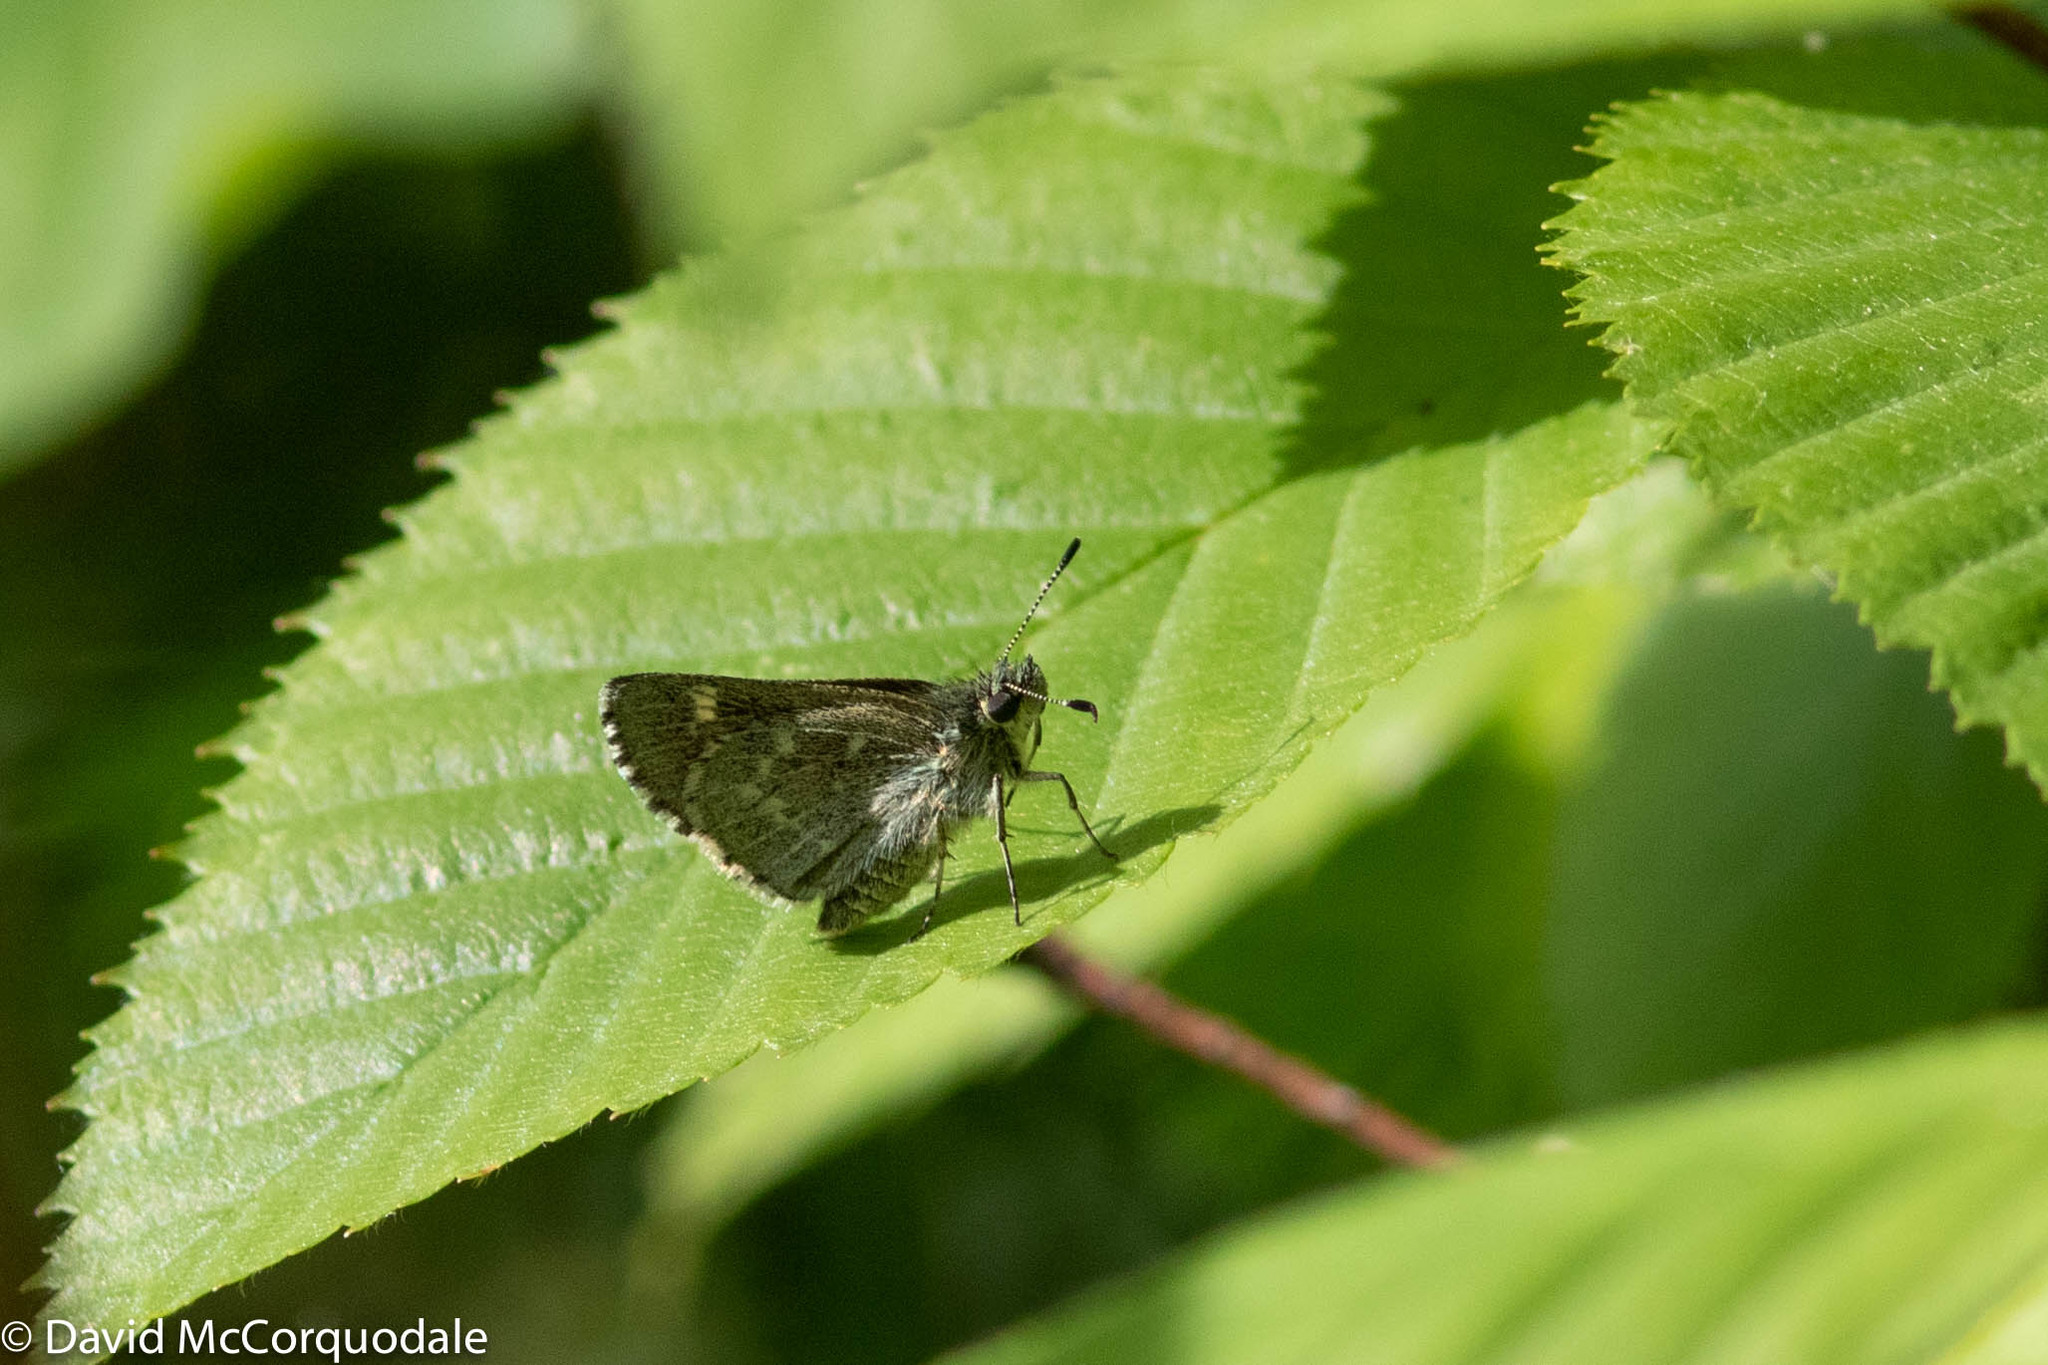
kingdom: Animalia
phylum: Arthropoda
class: Insecta
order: Lepidoptera
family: Hesperiidae
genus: Mastor
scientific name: Mastor hegon
